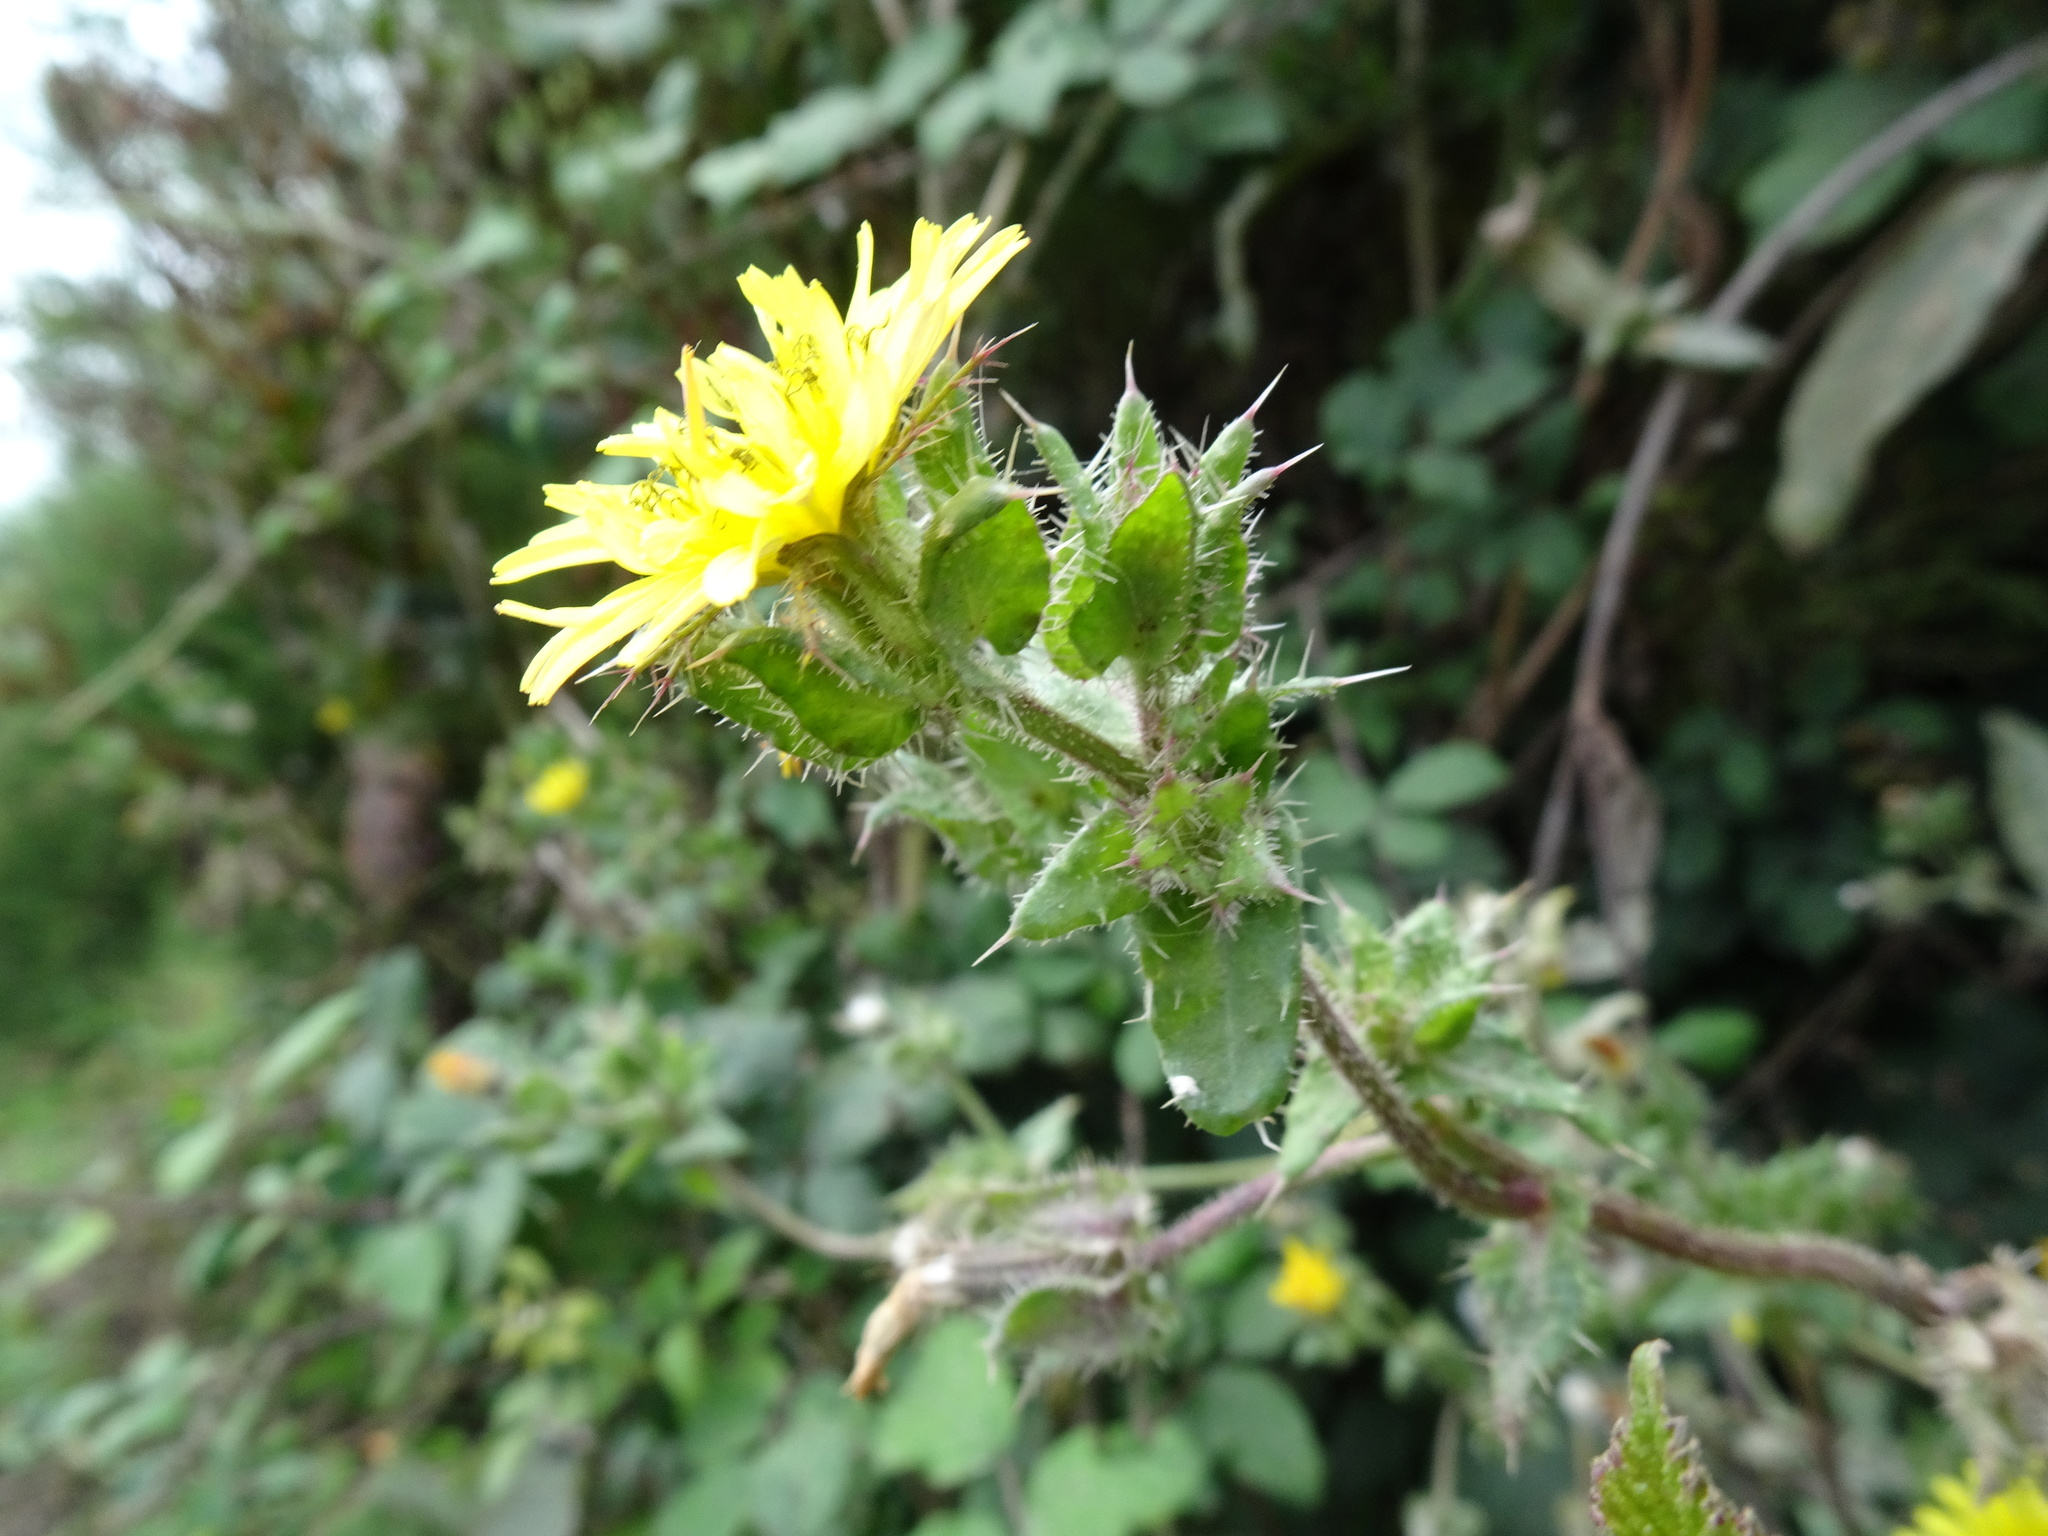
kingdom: Plantae
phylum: Tracheophyta
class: Magnoliopsida
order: Asterales
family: Asteraceae
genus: Helminthotheca
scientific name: Helminthotheca echioides
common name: Ox-tongue
